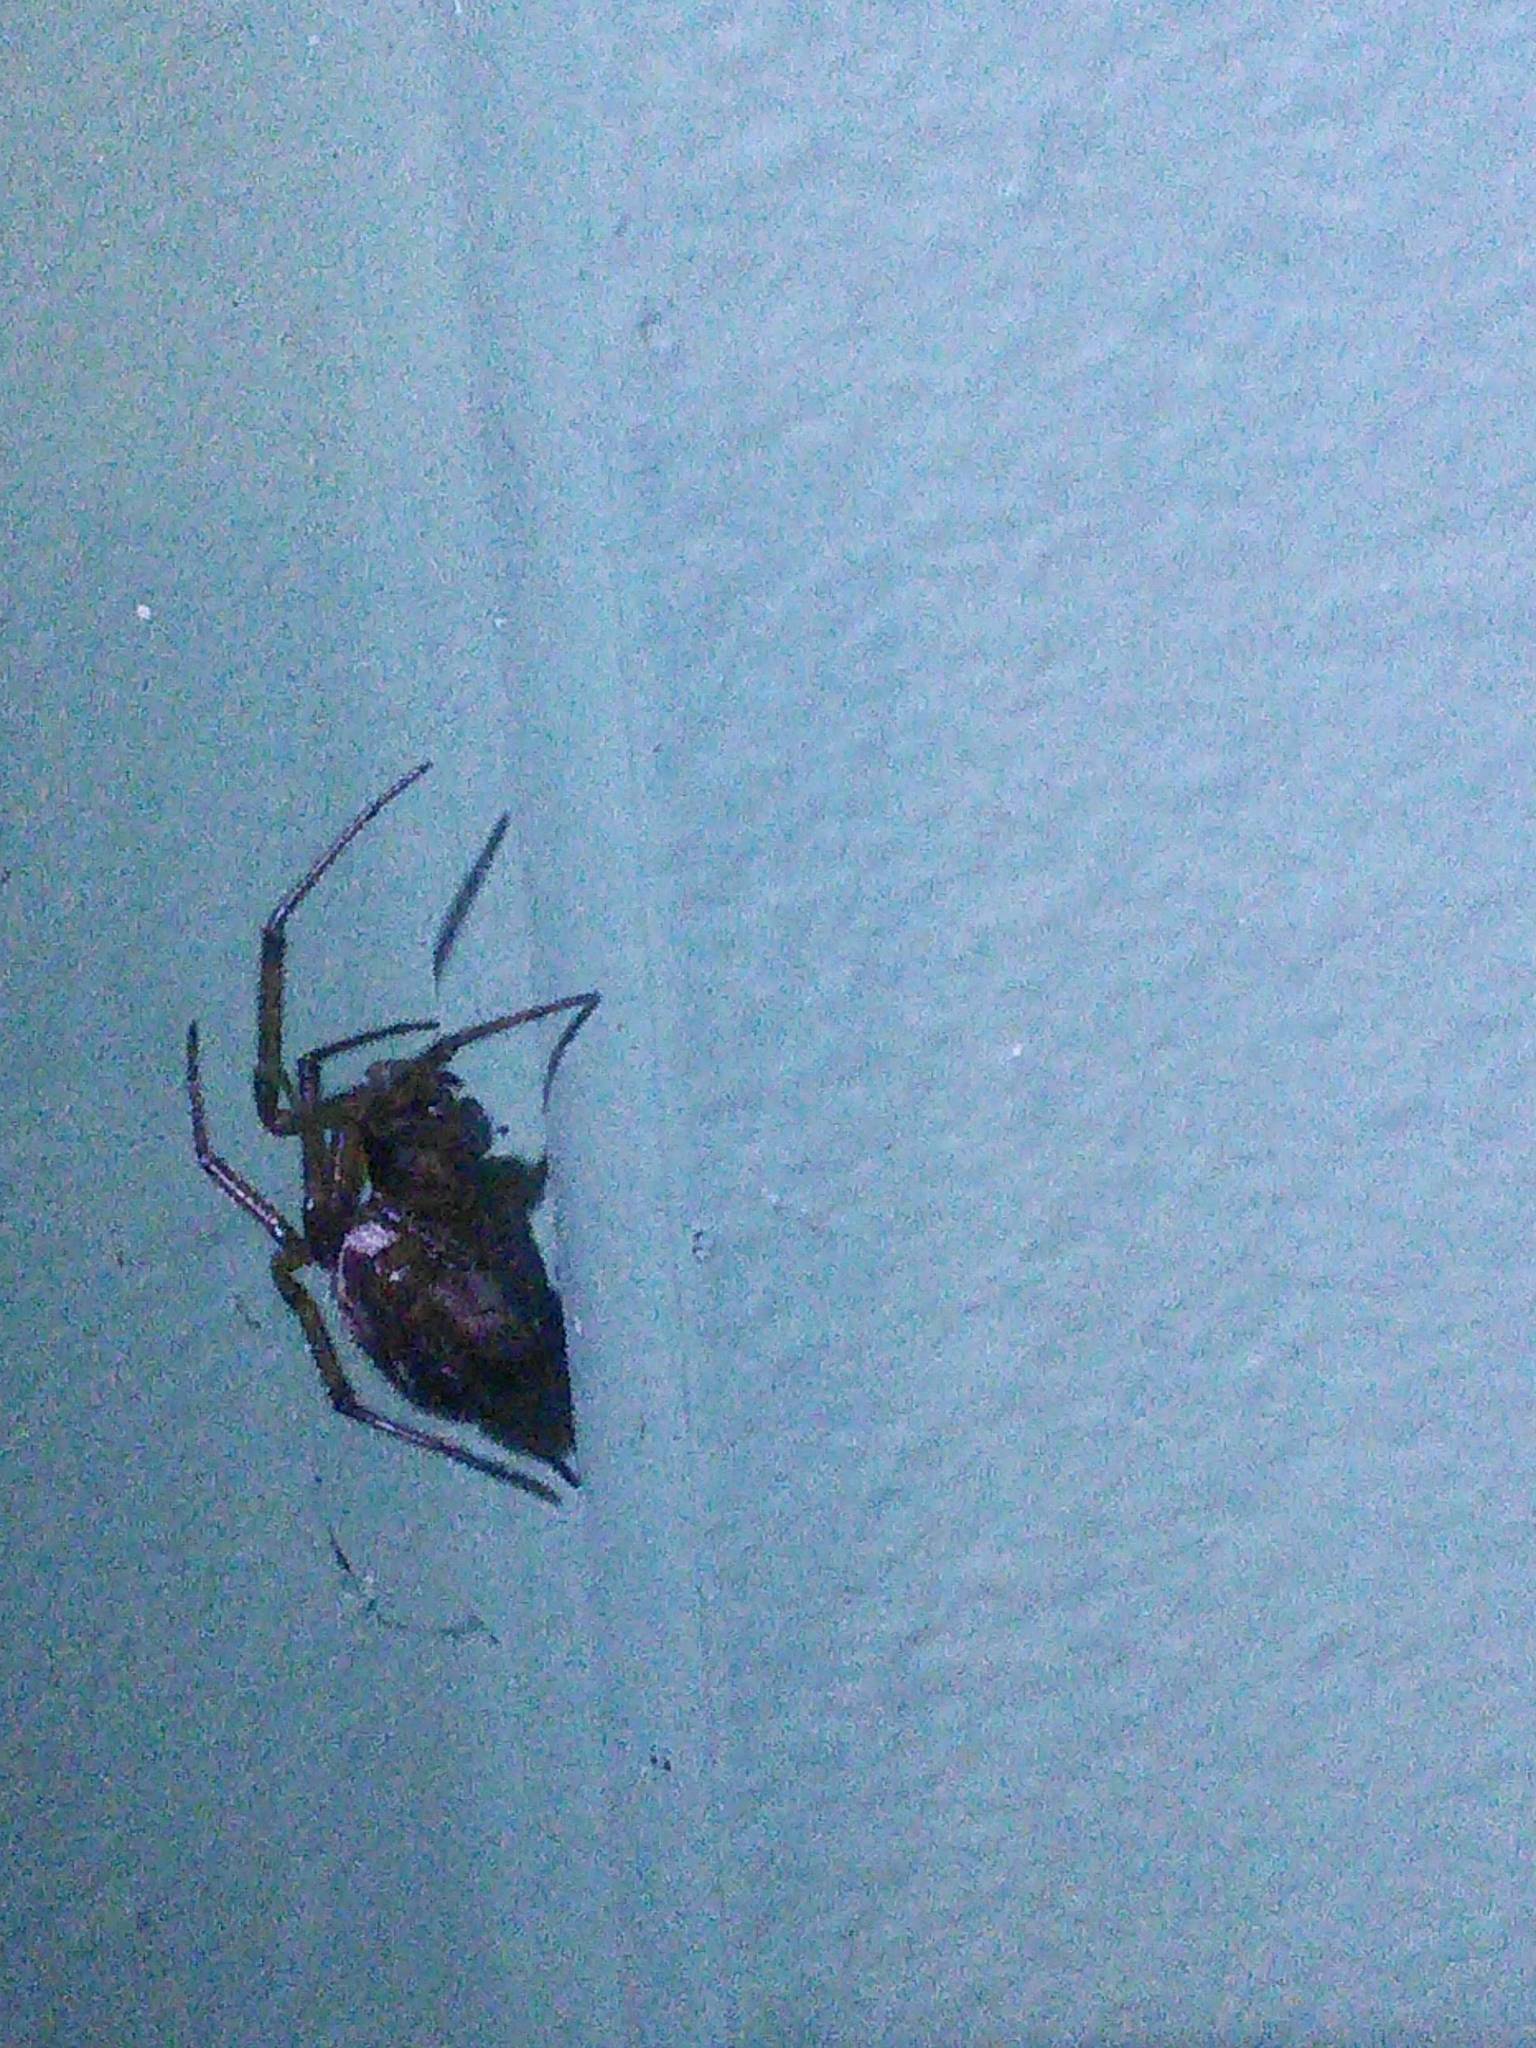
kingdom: Animalia
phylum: Arthropoda
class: Arachnida
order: Araneae
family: Theridiidae
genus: Steatoda
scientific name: Steatoda nobilis
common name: Cobweb weaver
